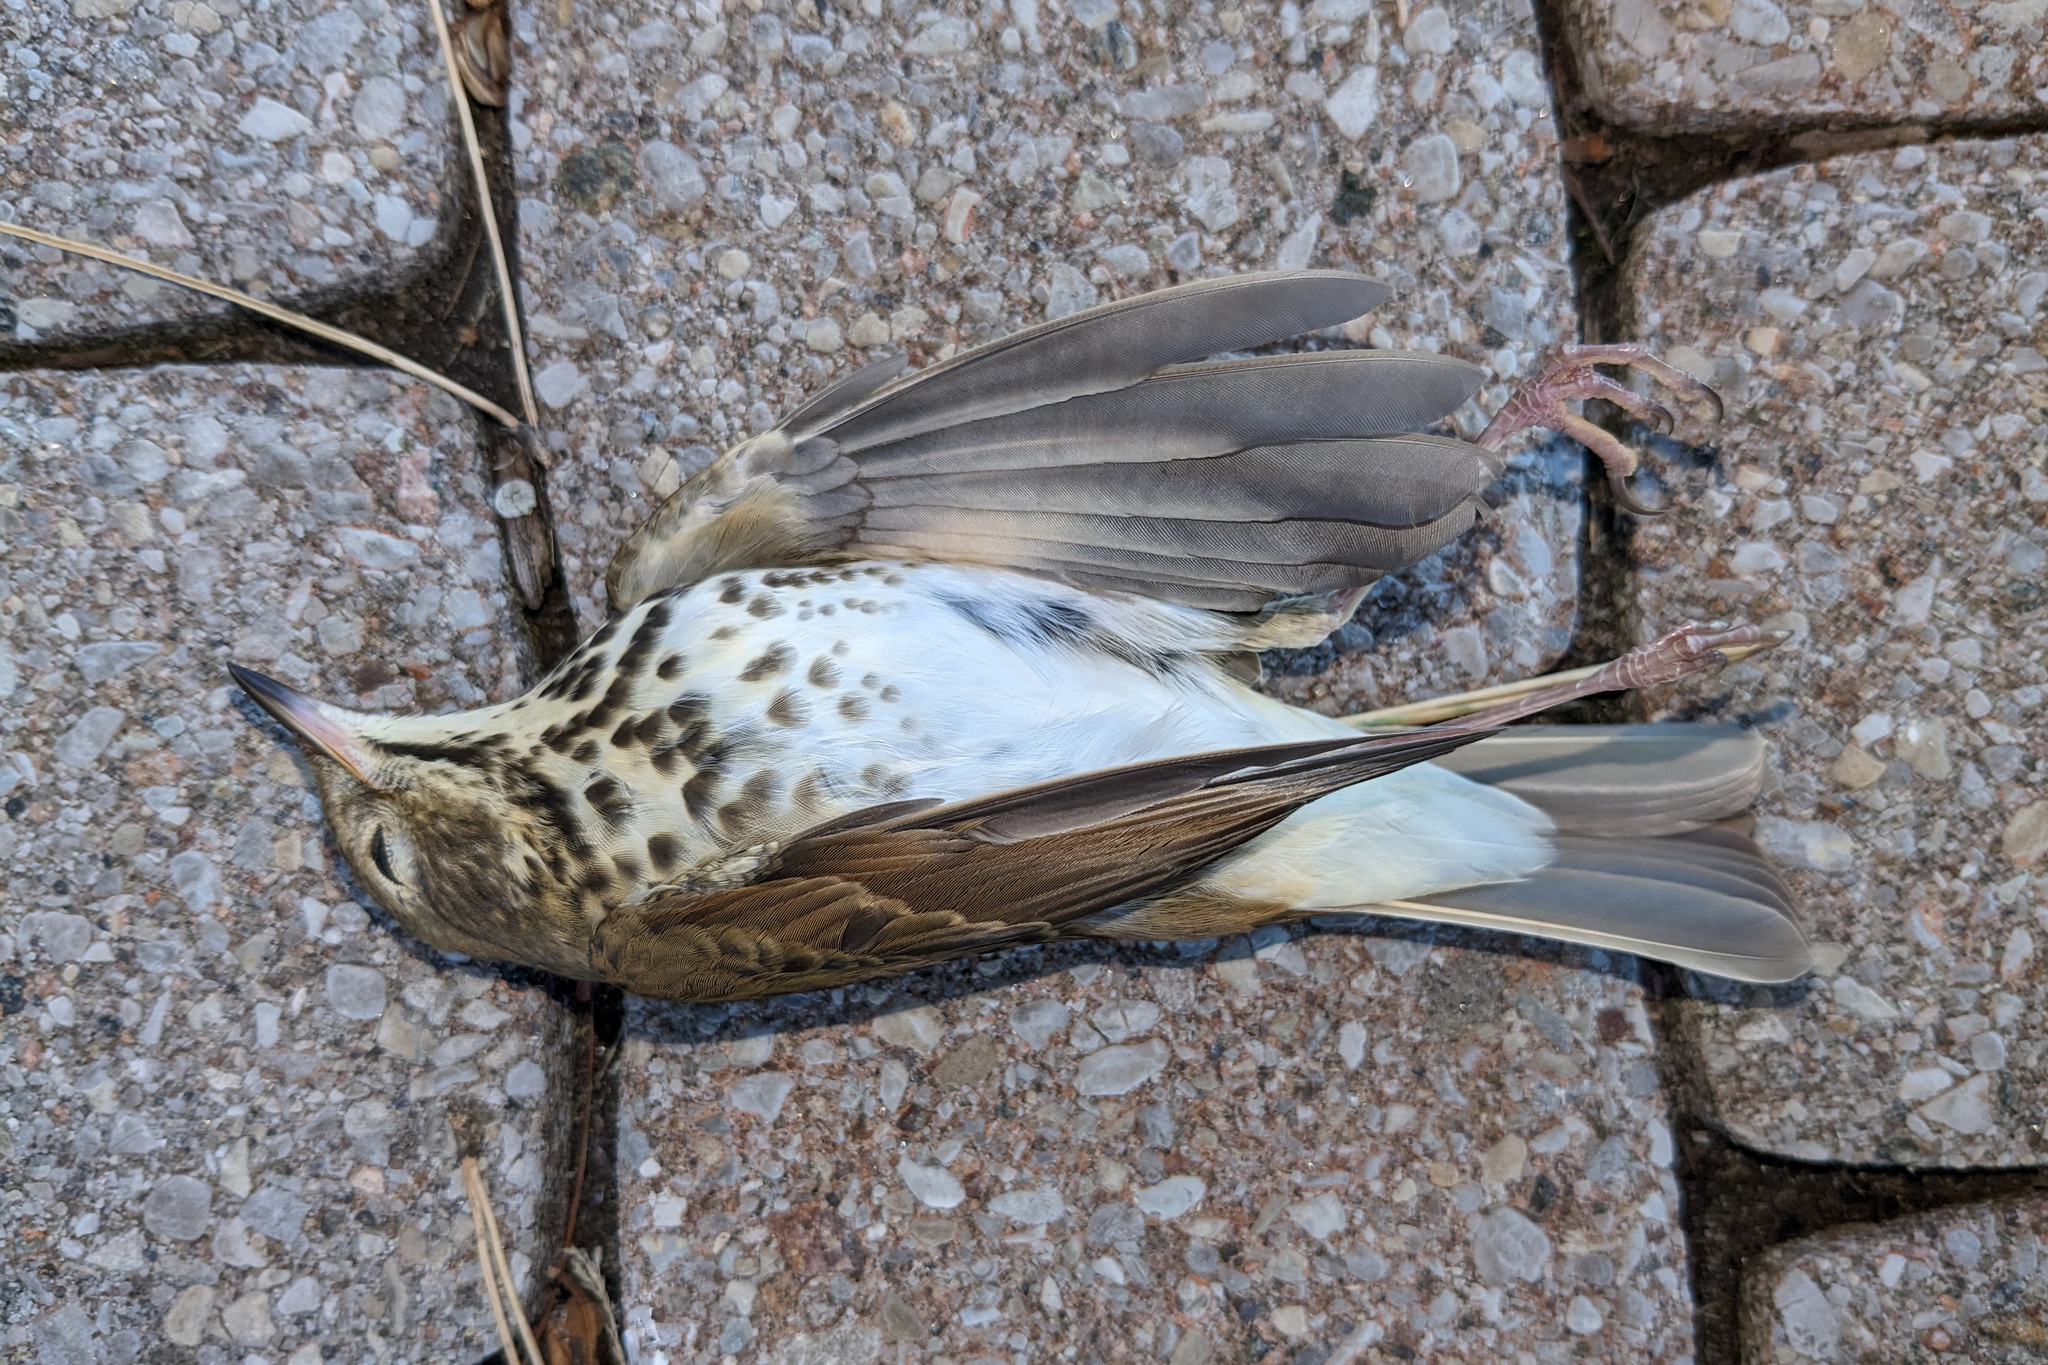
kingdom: Animalia
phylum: Chordata
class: Aves
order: Passeriformes
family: Turdidae
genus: Catharus
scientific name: Catharus guttatus
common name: Hermit thrush
